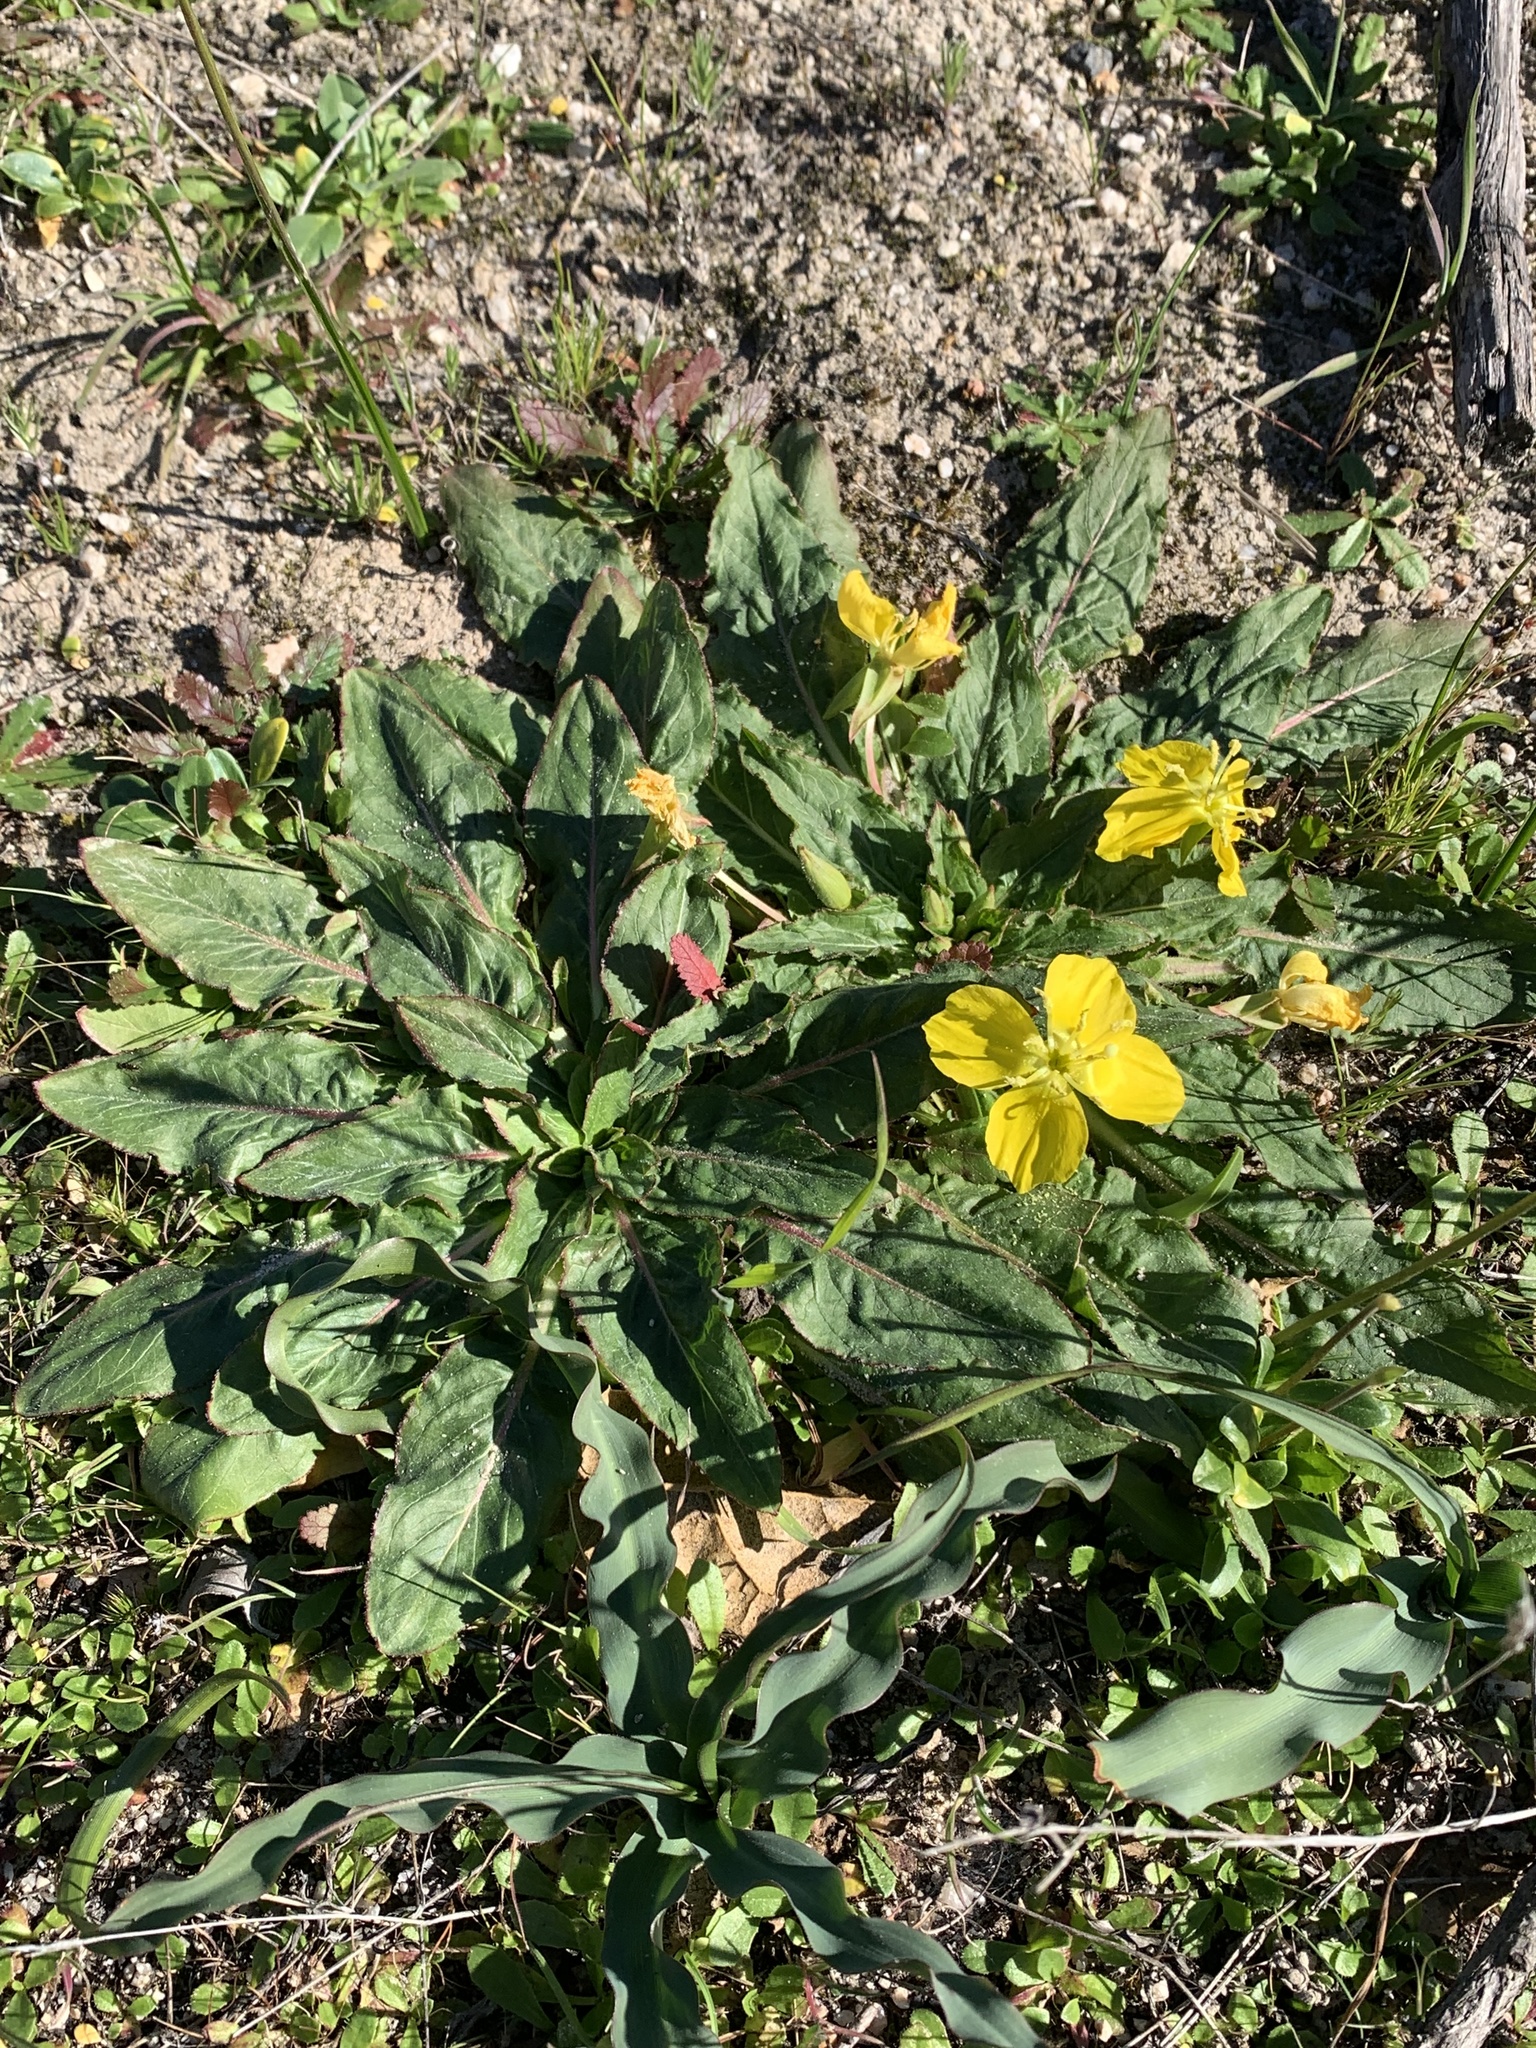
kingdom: Plantae
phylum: Tracheophyta
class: Magnoliopsida
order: Myrtales
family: Onagraceae
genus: Taraxia
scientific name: Taraxia ovata
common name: Goldeneggs
